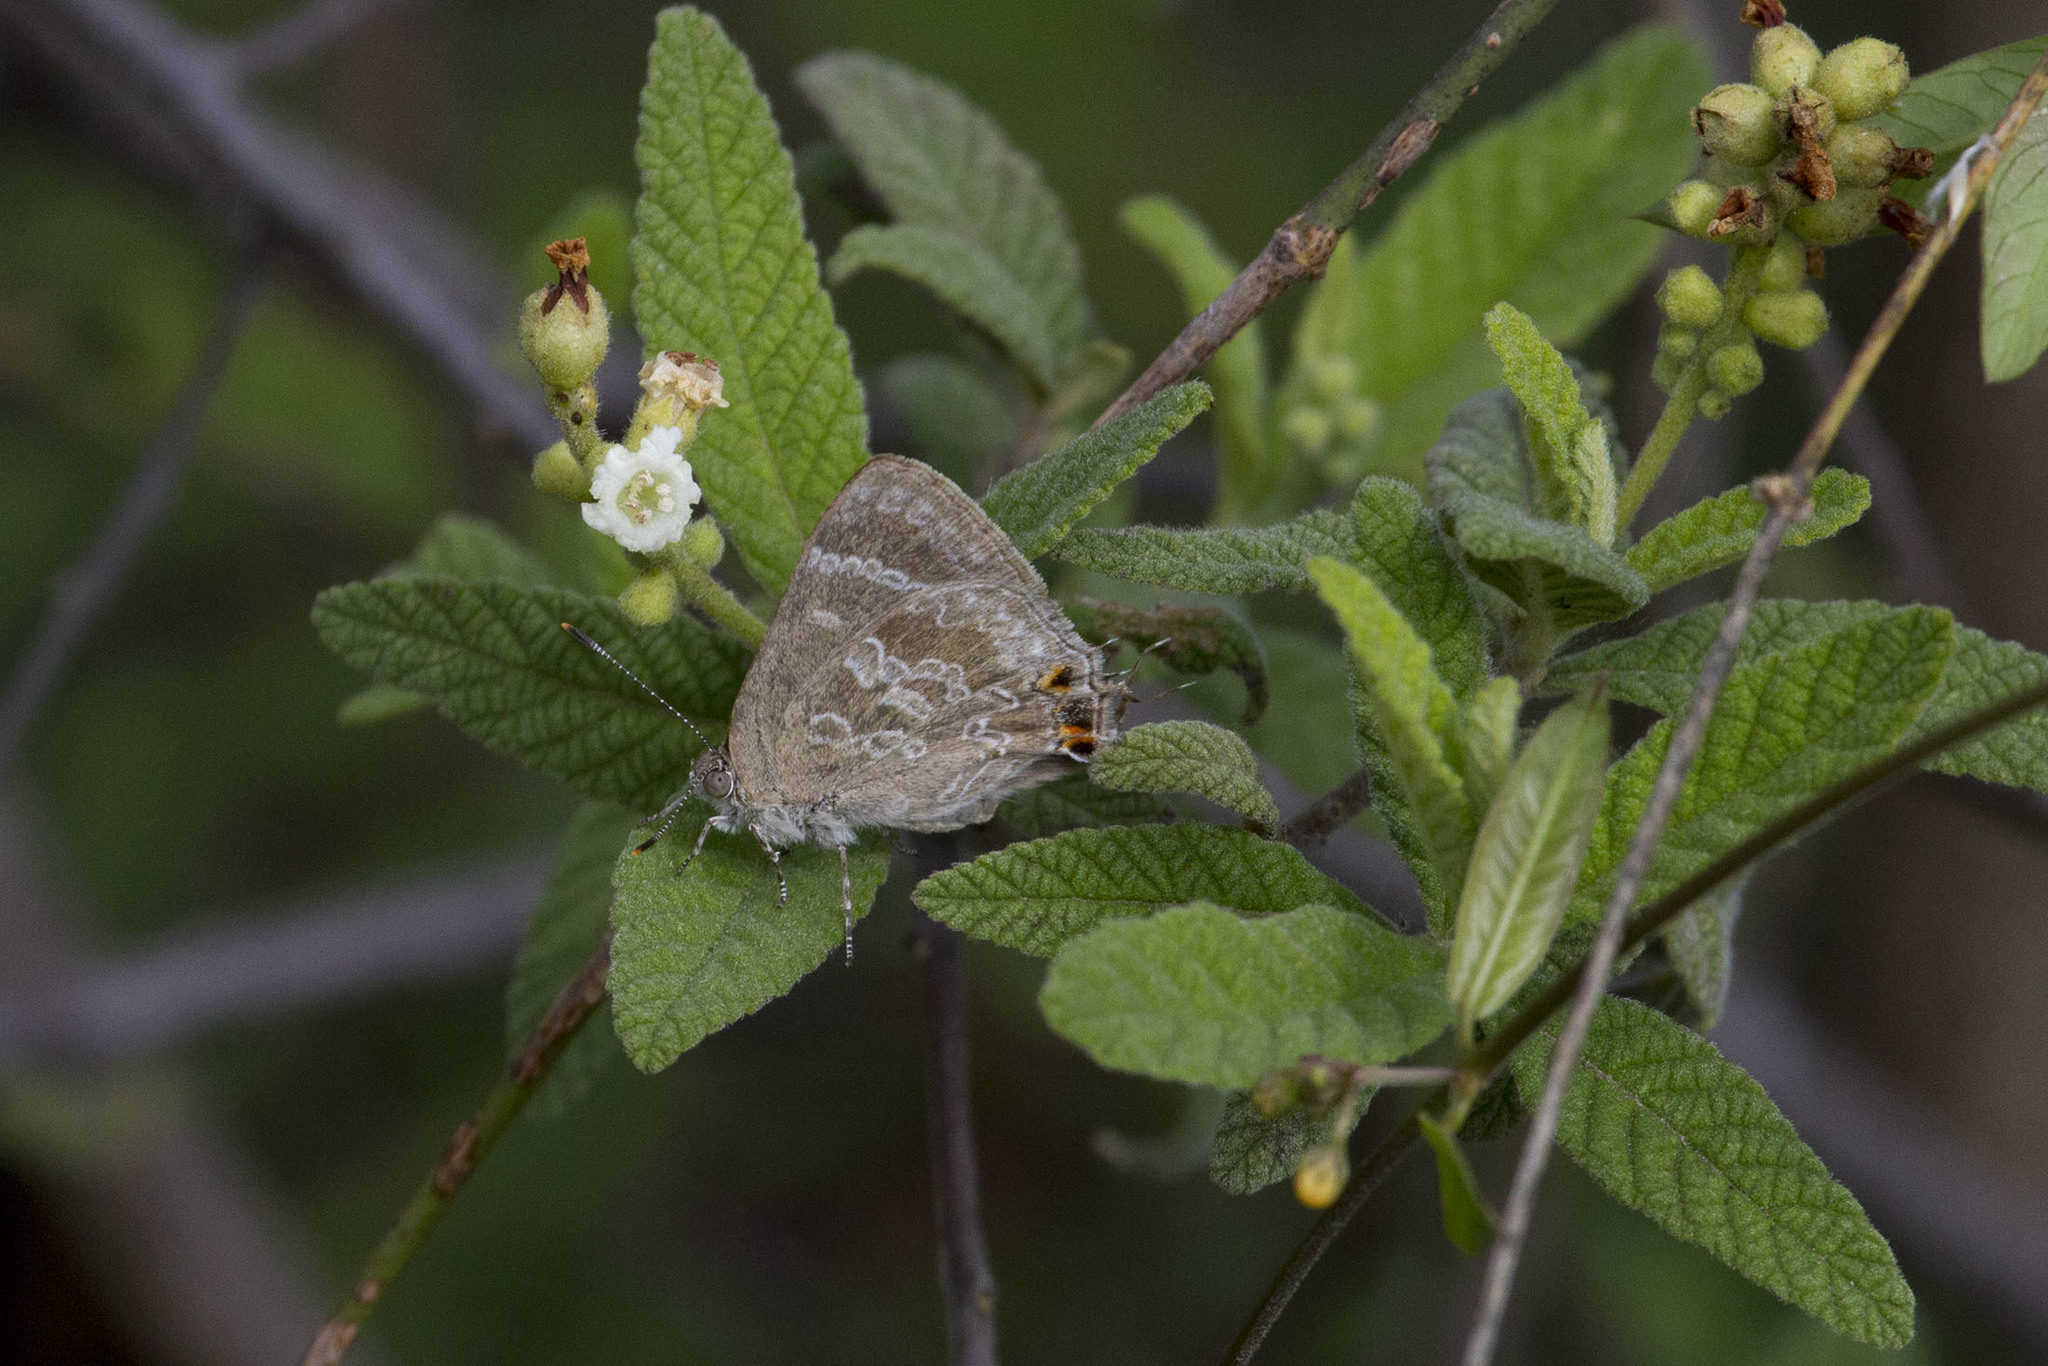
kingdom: Animalia
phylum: Arthropoda
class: Insecta
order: Lepidoptera
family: Lycaenidae
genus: Contrafacia
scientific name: Contrafacia
